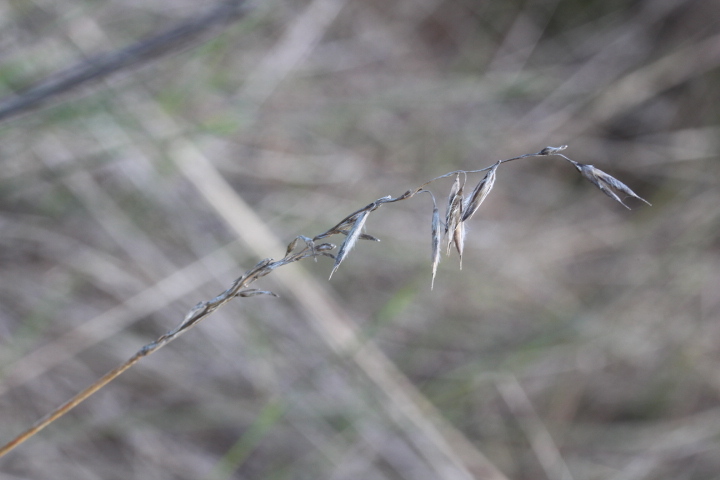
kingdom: Plantae
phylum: Tracheophyta
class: Liliopsida
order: Poales
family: Poaceae
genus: Ehrharta
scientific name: Ehrharta villosa
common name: Pyp grass
